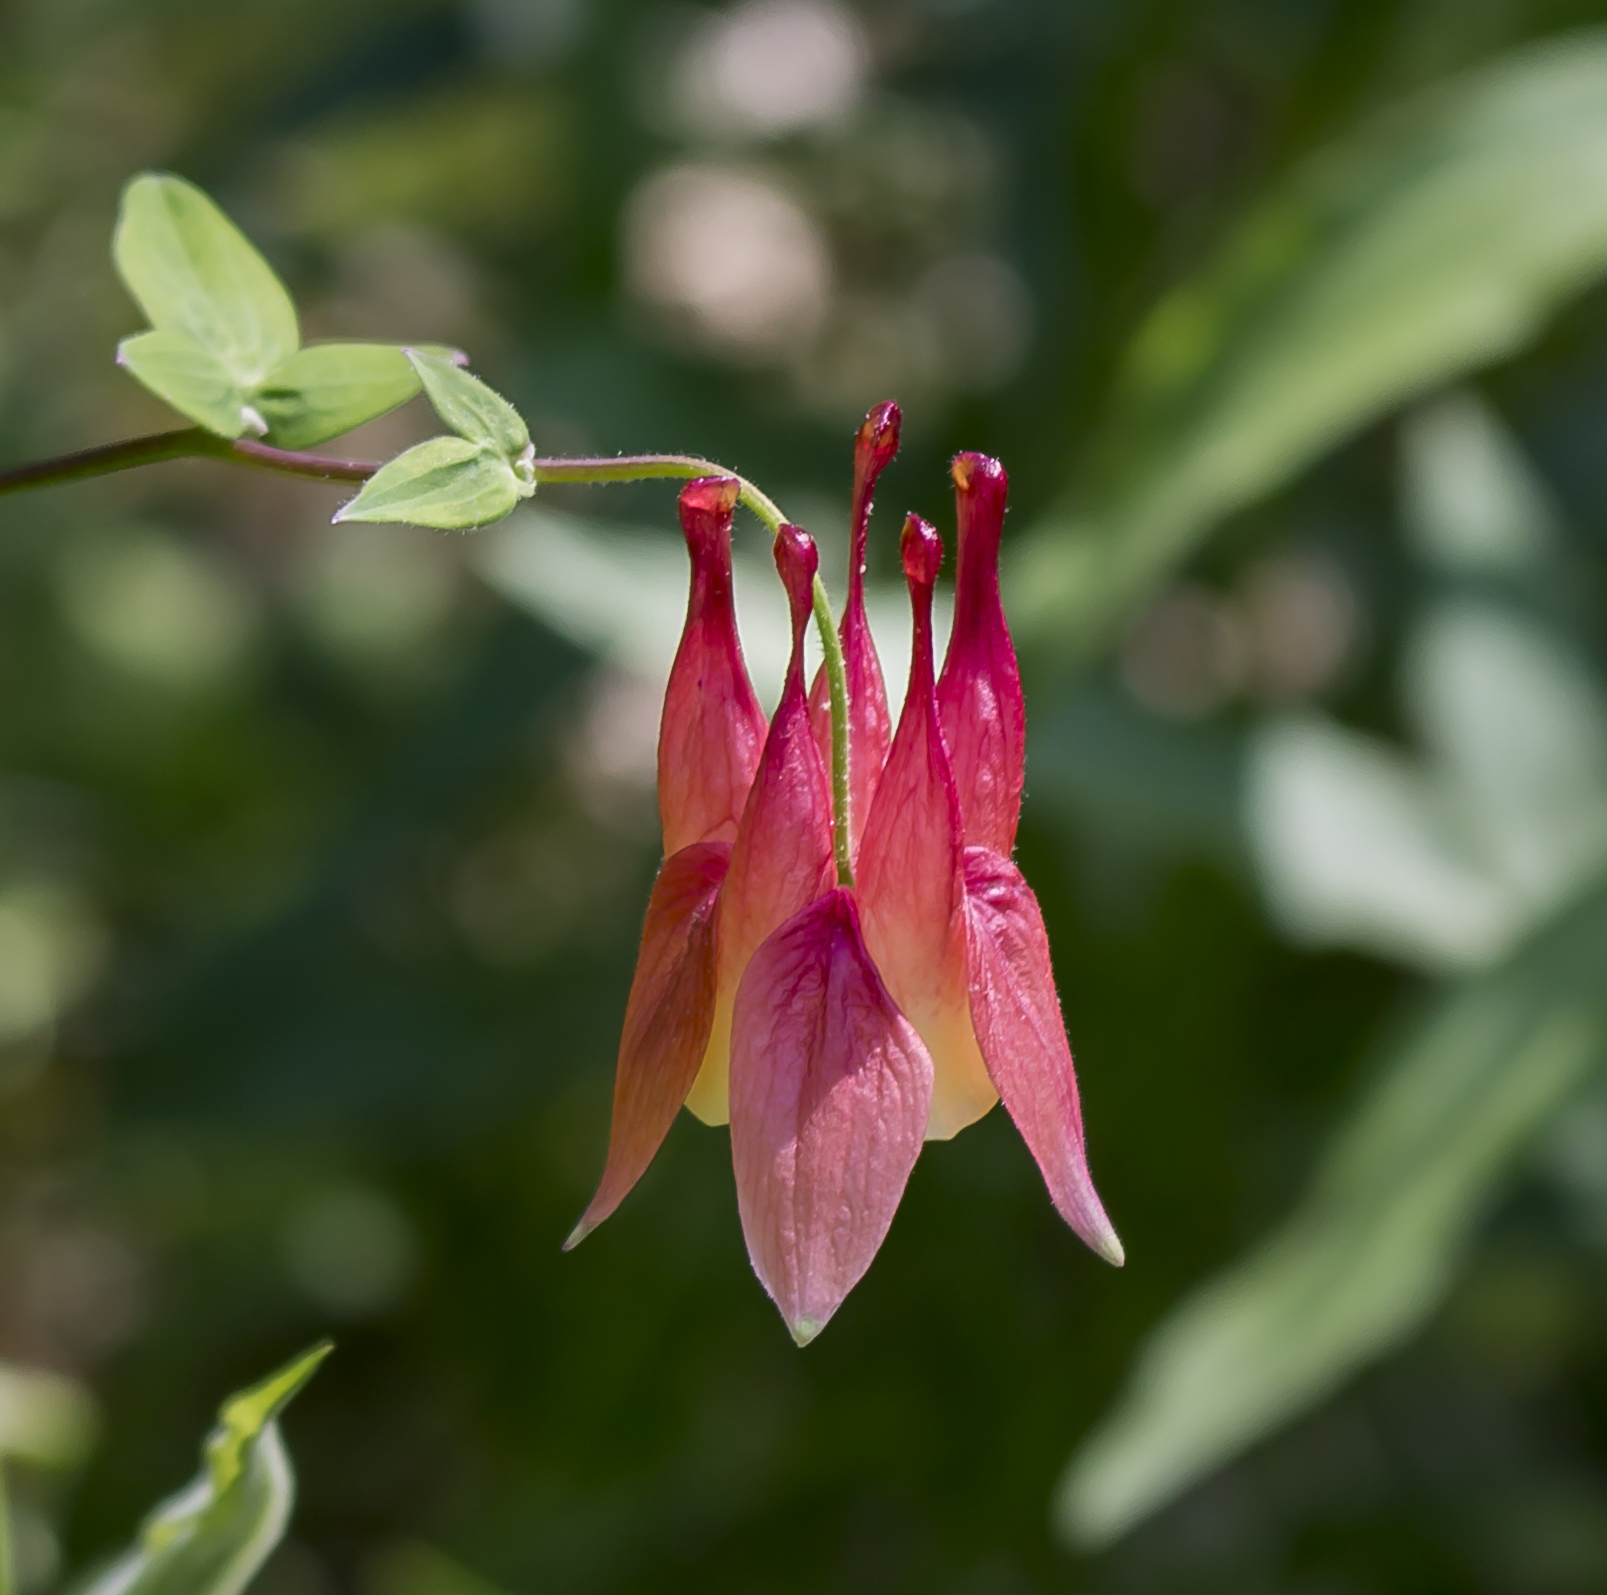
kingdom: Plantae
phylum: Tracheophyta
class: Magnoliopsida
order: Ranunculales
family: Ranunculaceae
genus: Aquilegia
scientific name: Aquilegia canadensis
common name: American columbine
